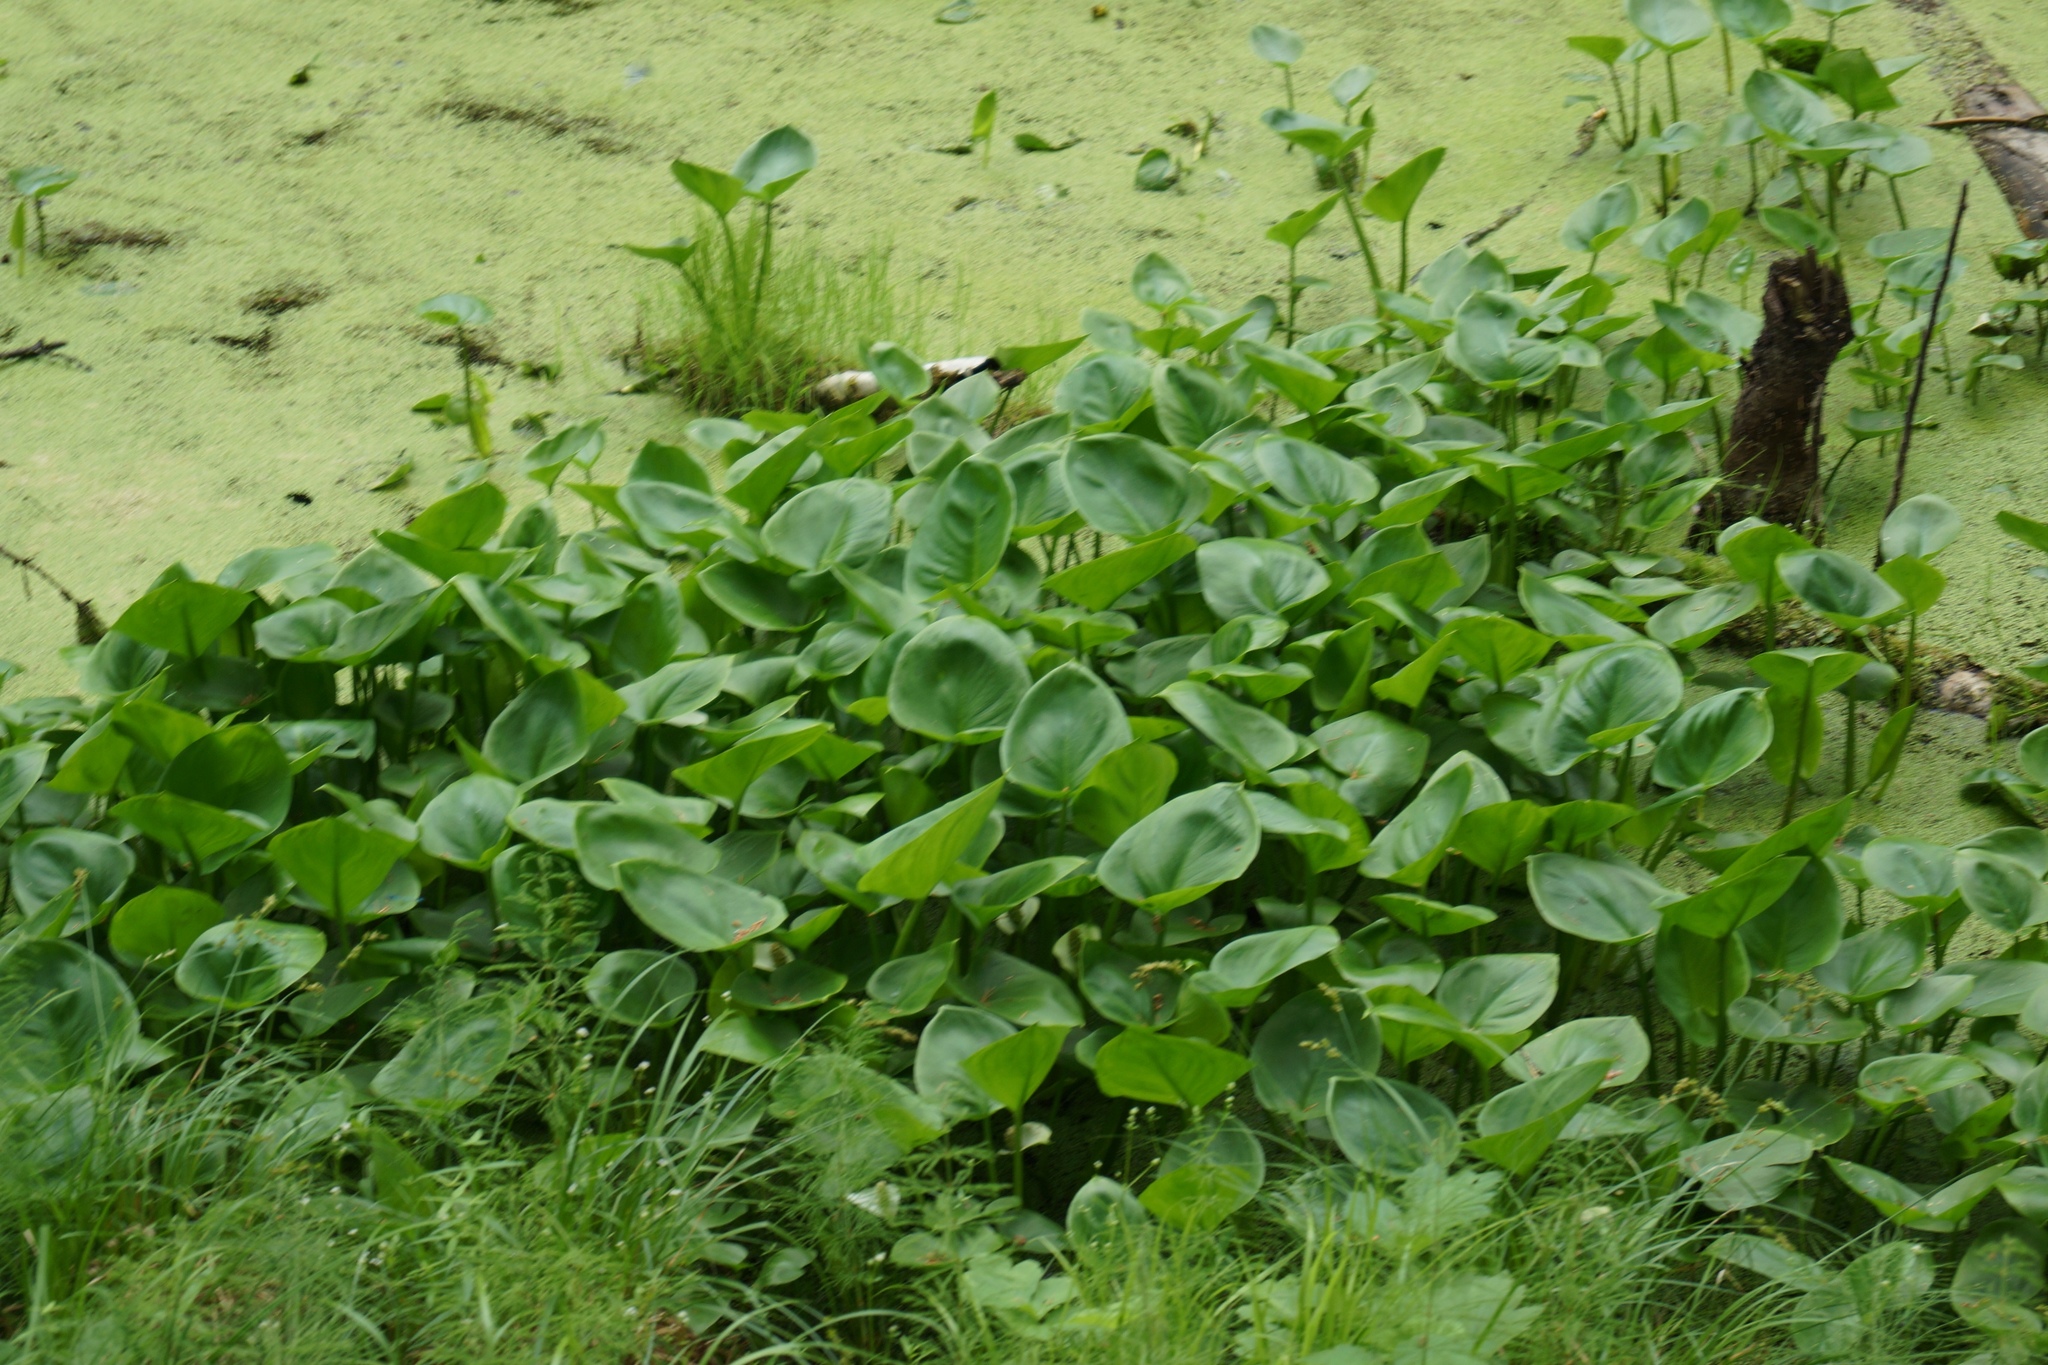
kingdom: Plantae
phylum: Tracheophyta
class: Liliopsida
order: Alismatales
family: Araceae
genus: Calla
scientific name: Calla palustris
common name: Bog arum
